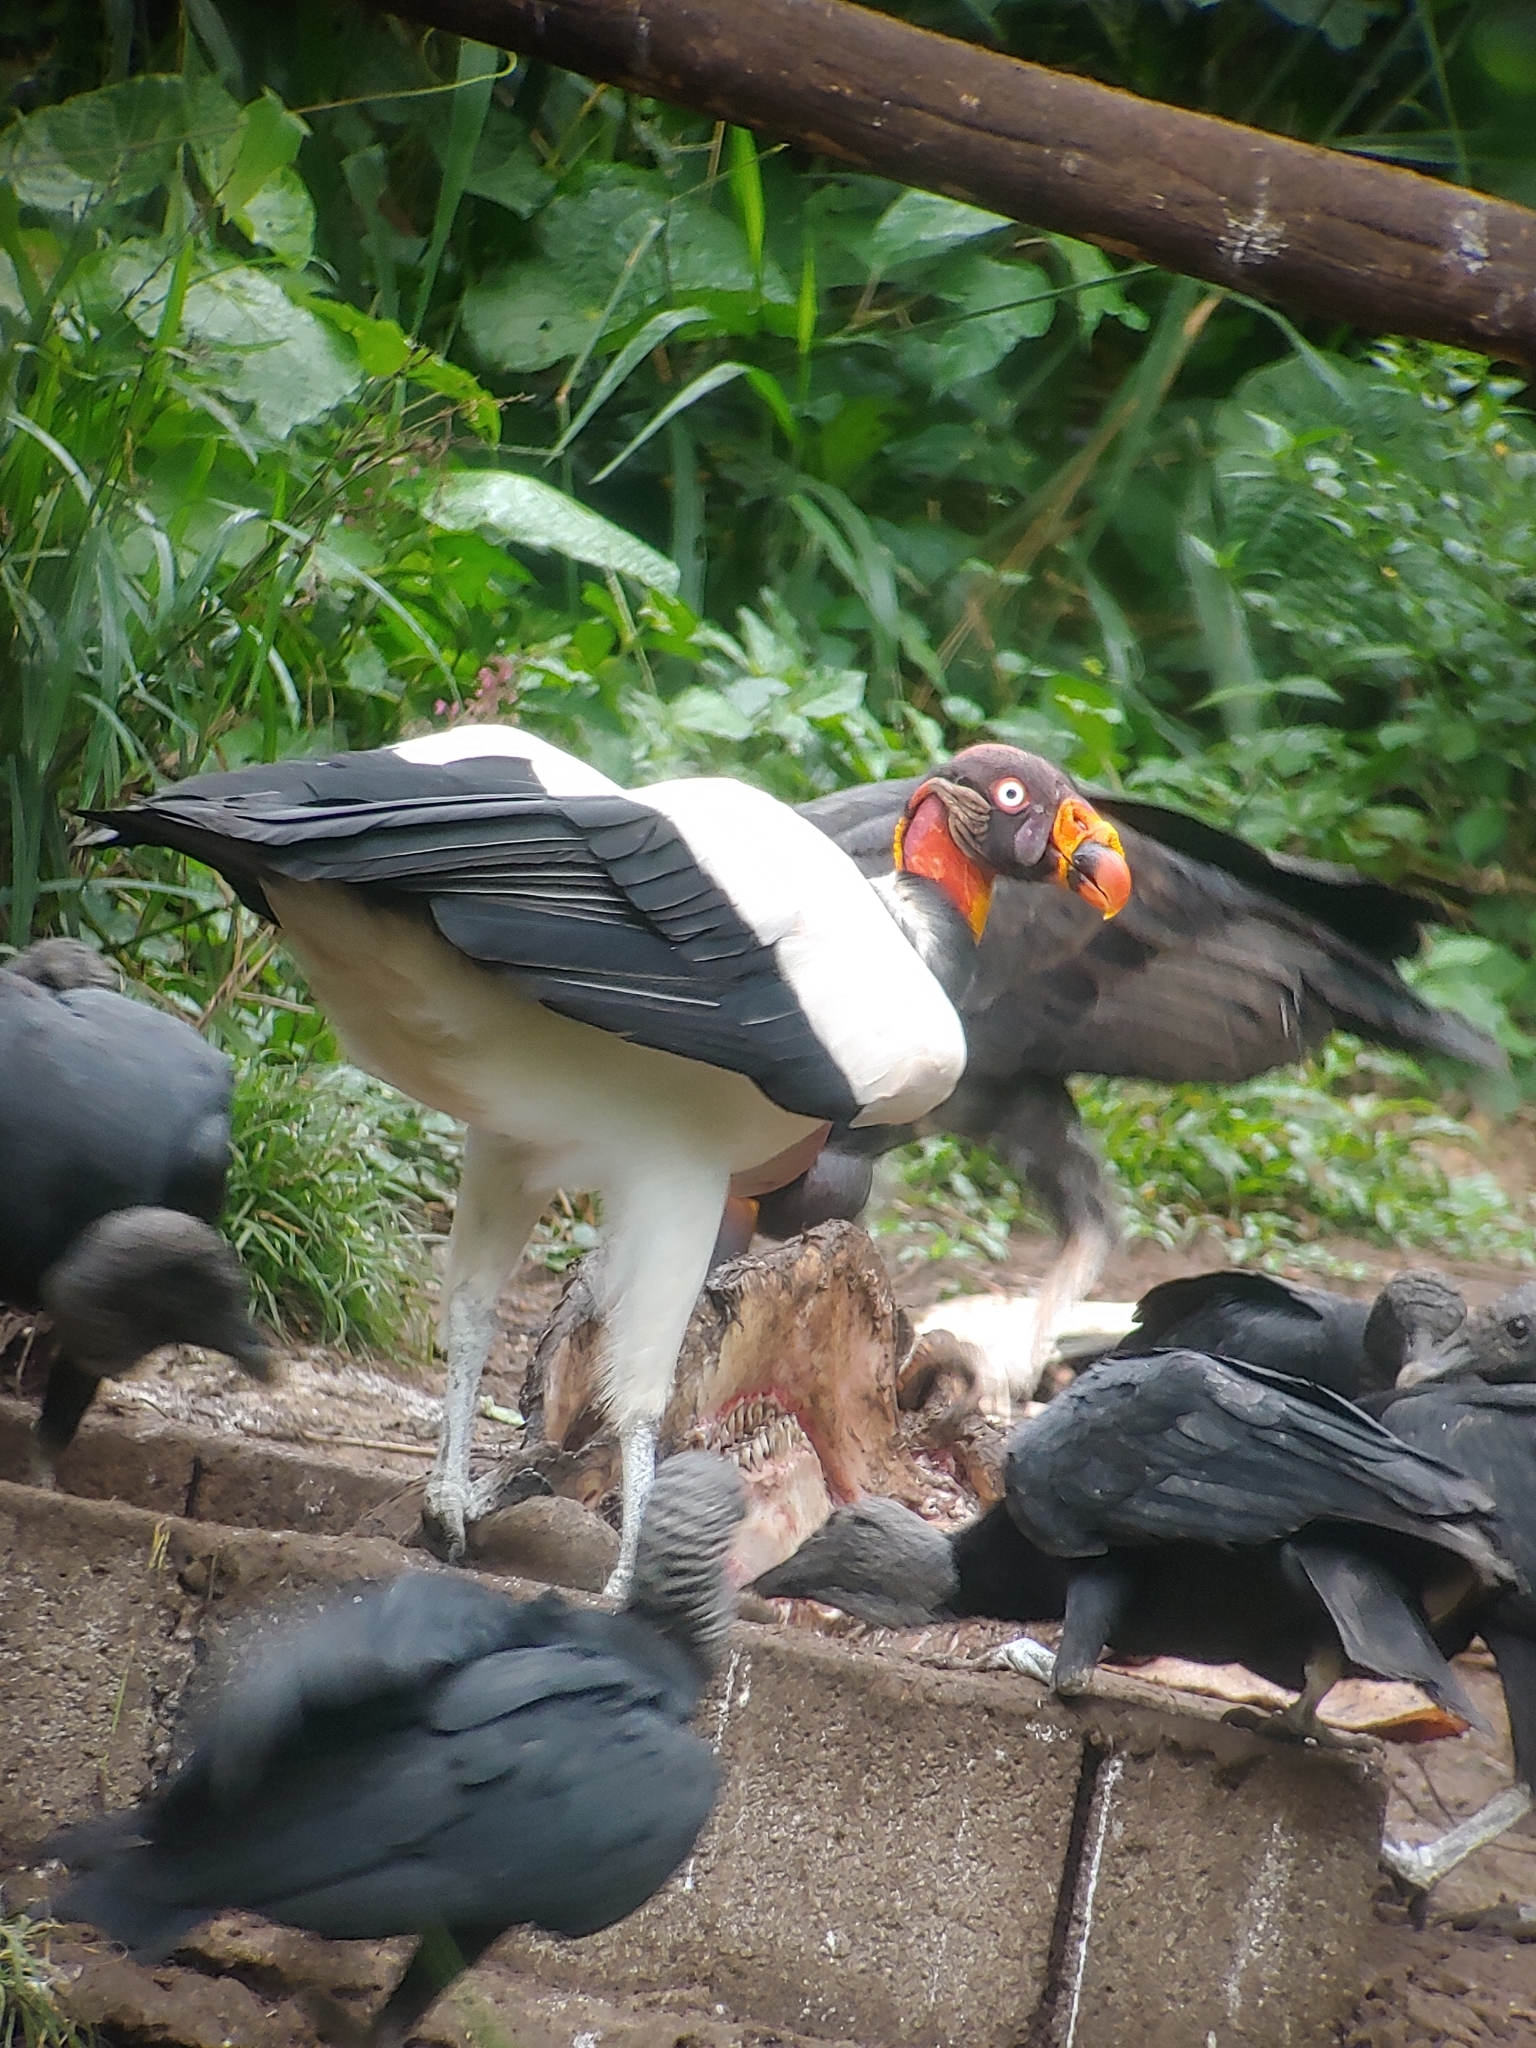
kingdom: Animalia
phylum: Chordata
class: Aves
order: Accipitriformes
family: Cathartidae
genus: Sarcoramphus
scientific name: Sarcoramphus papa
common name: King vulture
